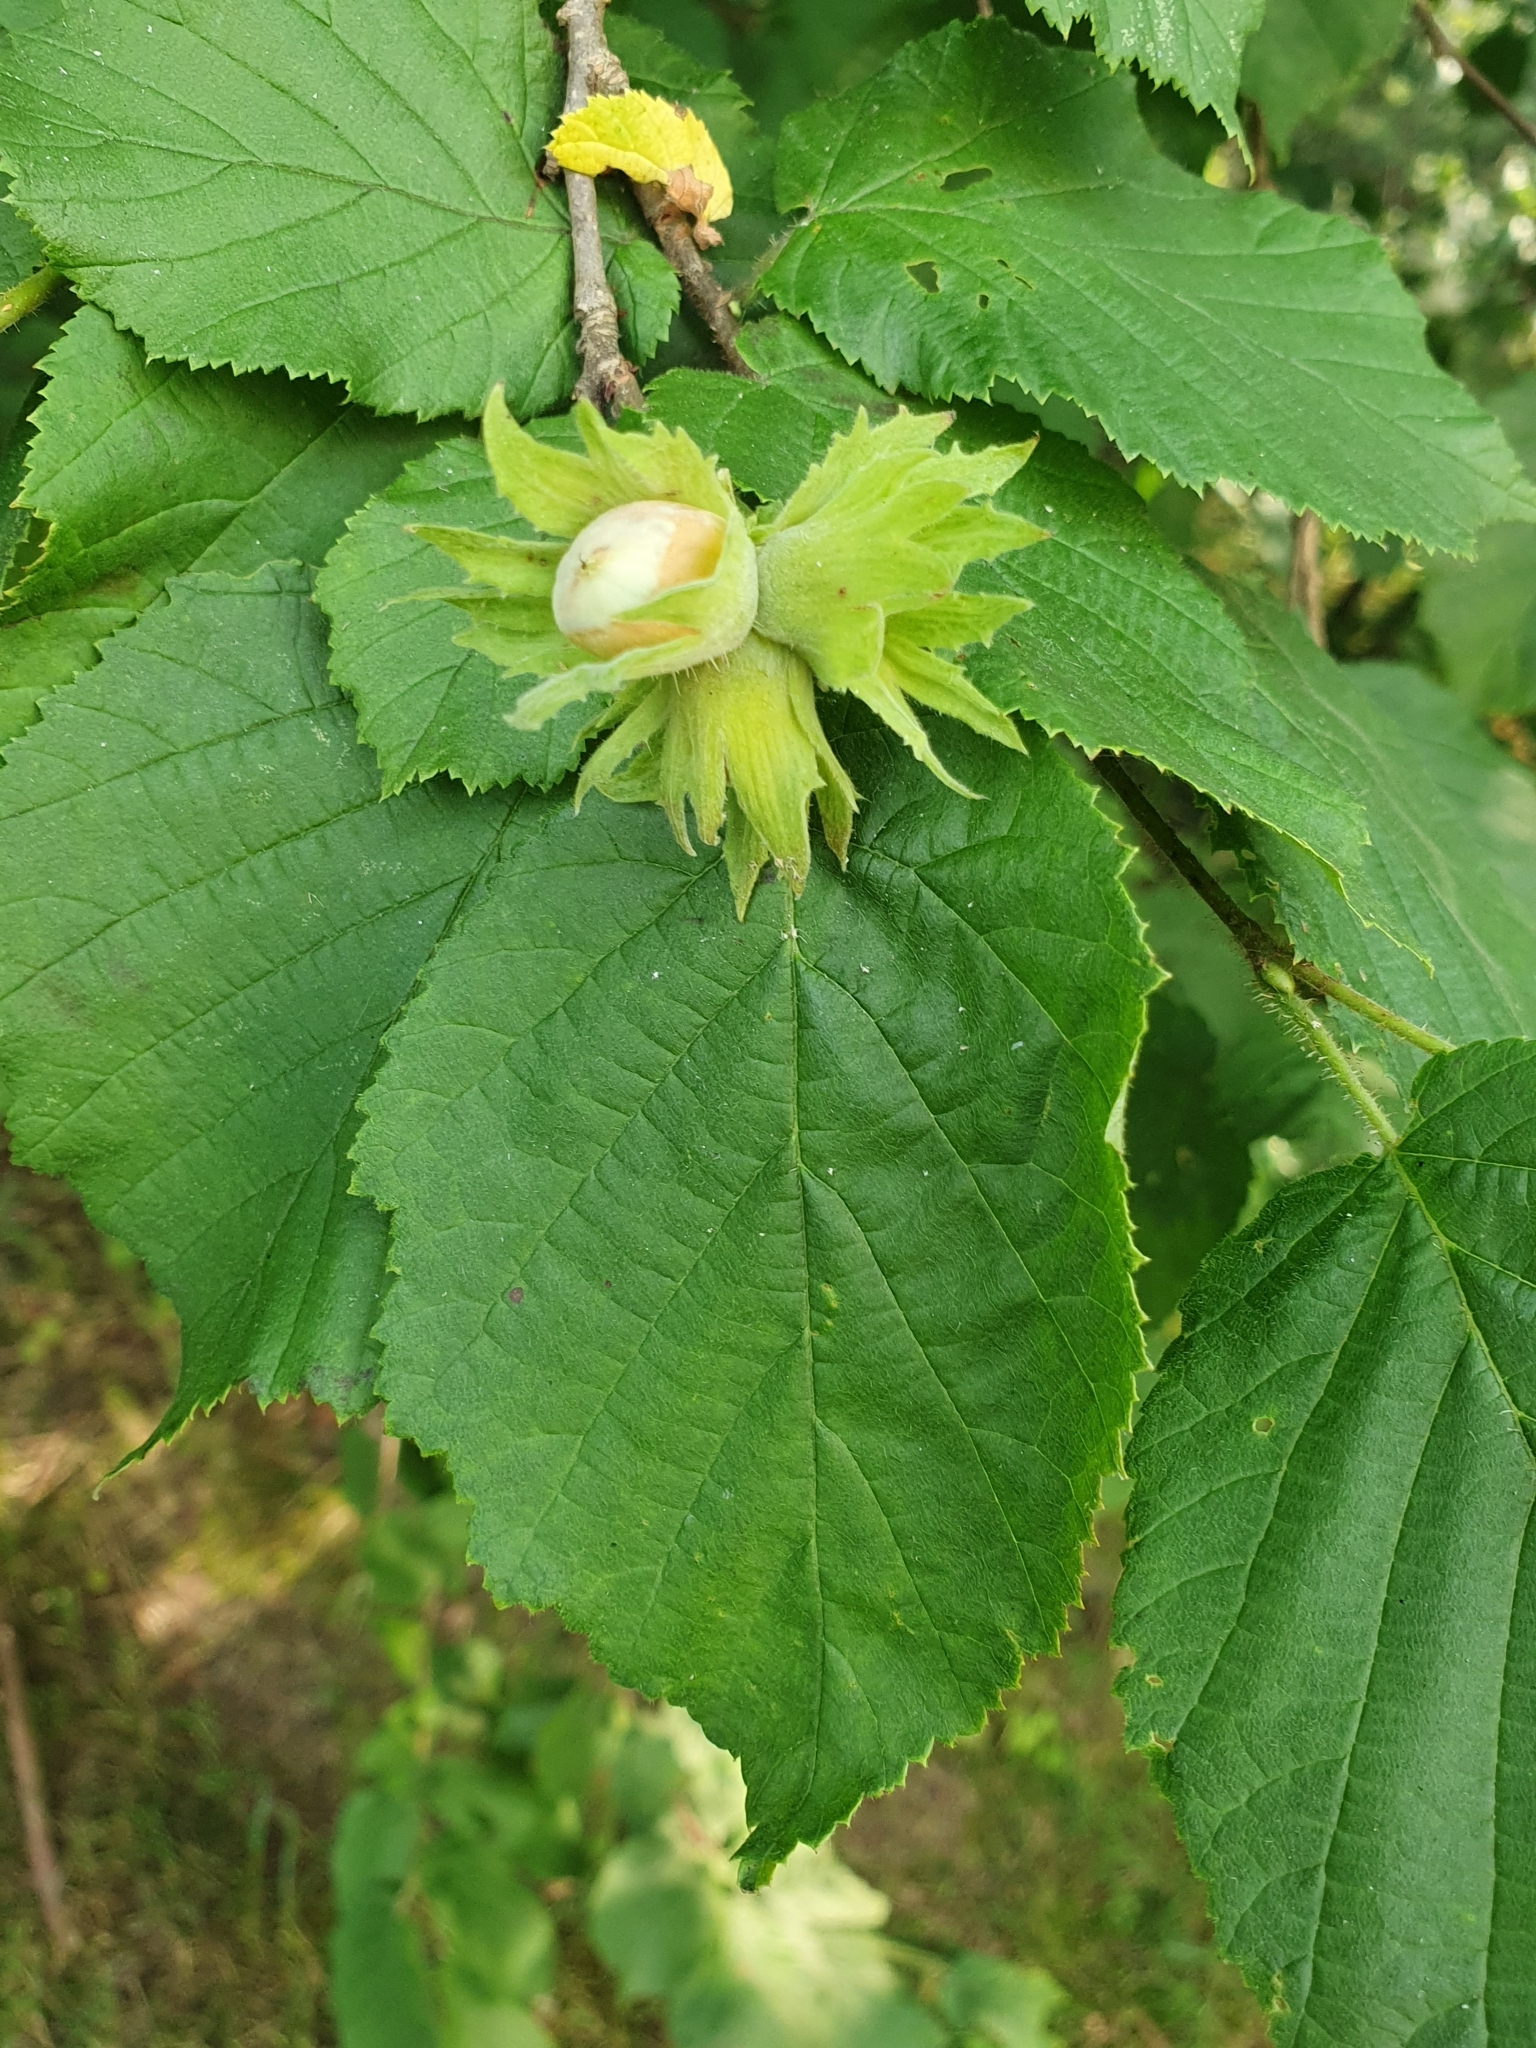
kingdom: Plantae
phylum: Tracheophyta
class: Magnoliopsida
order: Fagales
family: Betulaceae
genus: Corylus
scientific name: Corylus avellana
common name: European hazel
